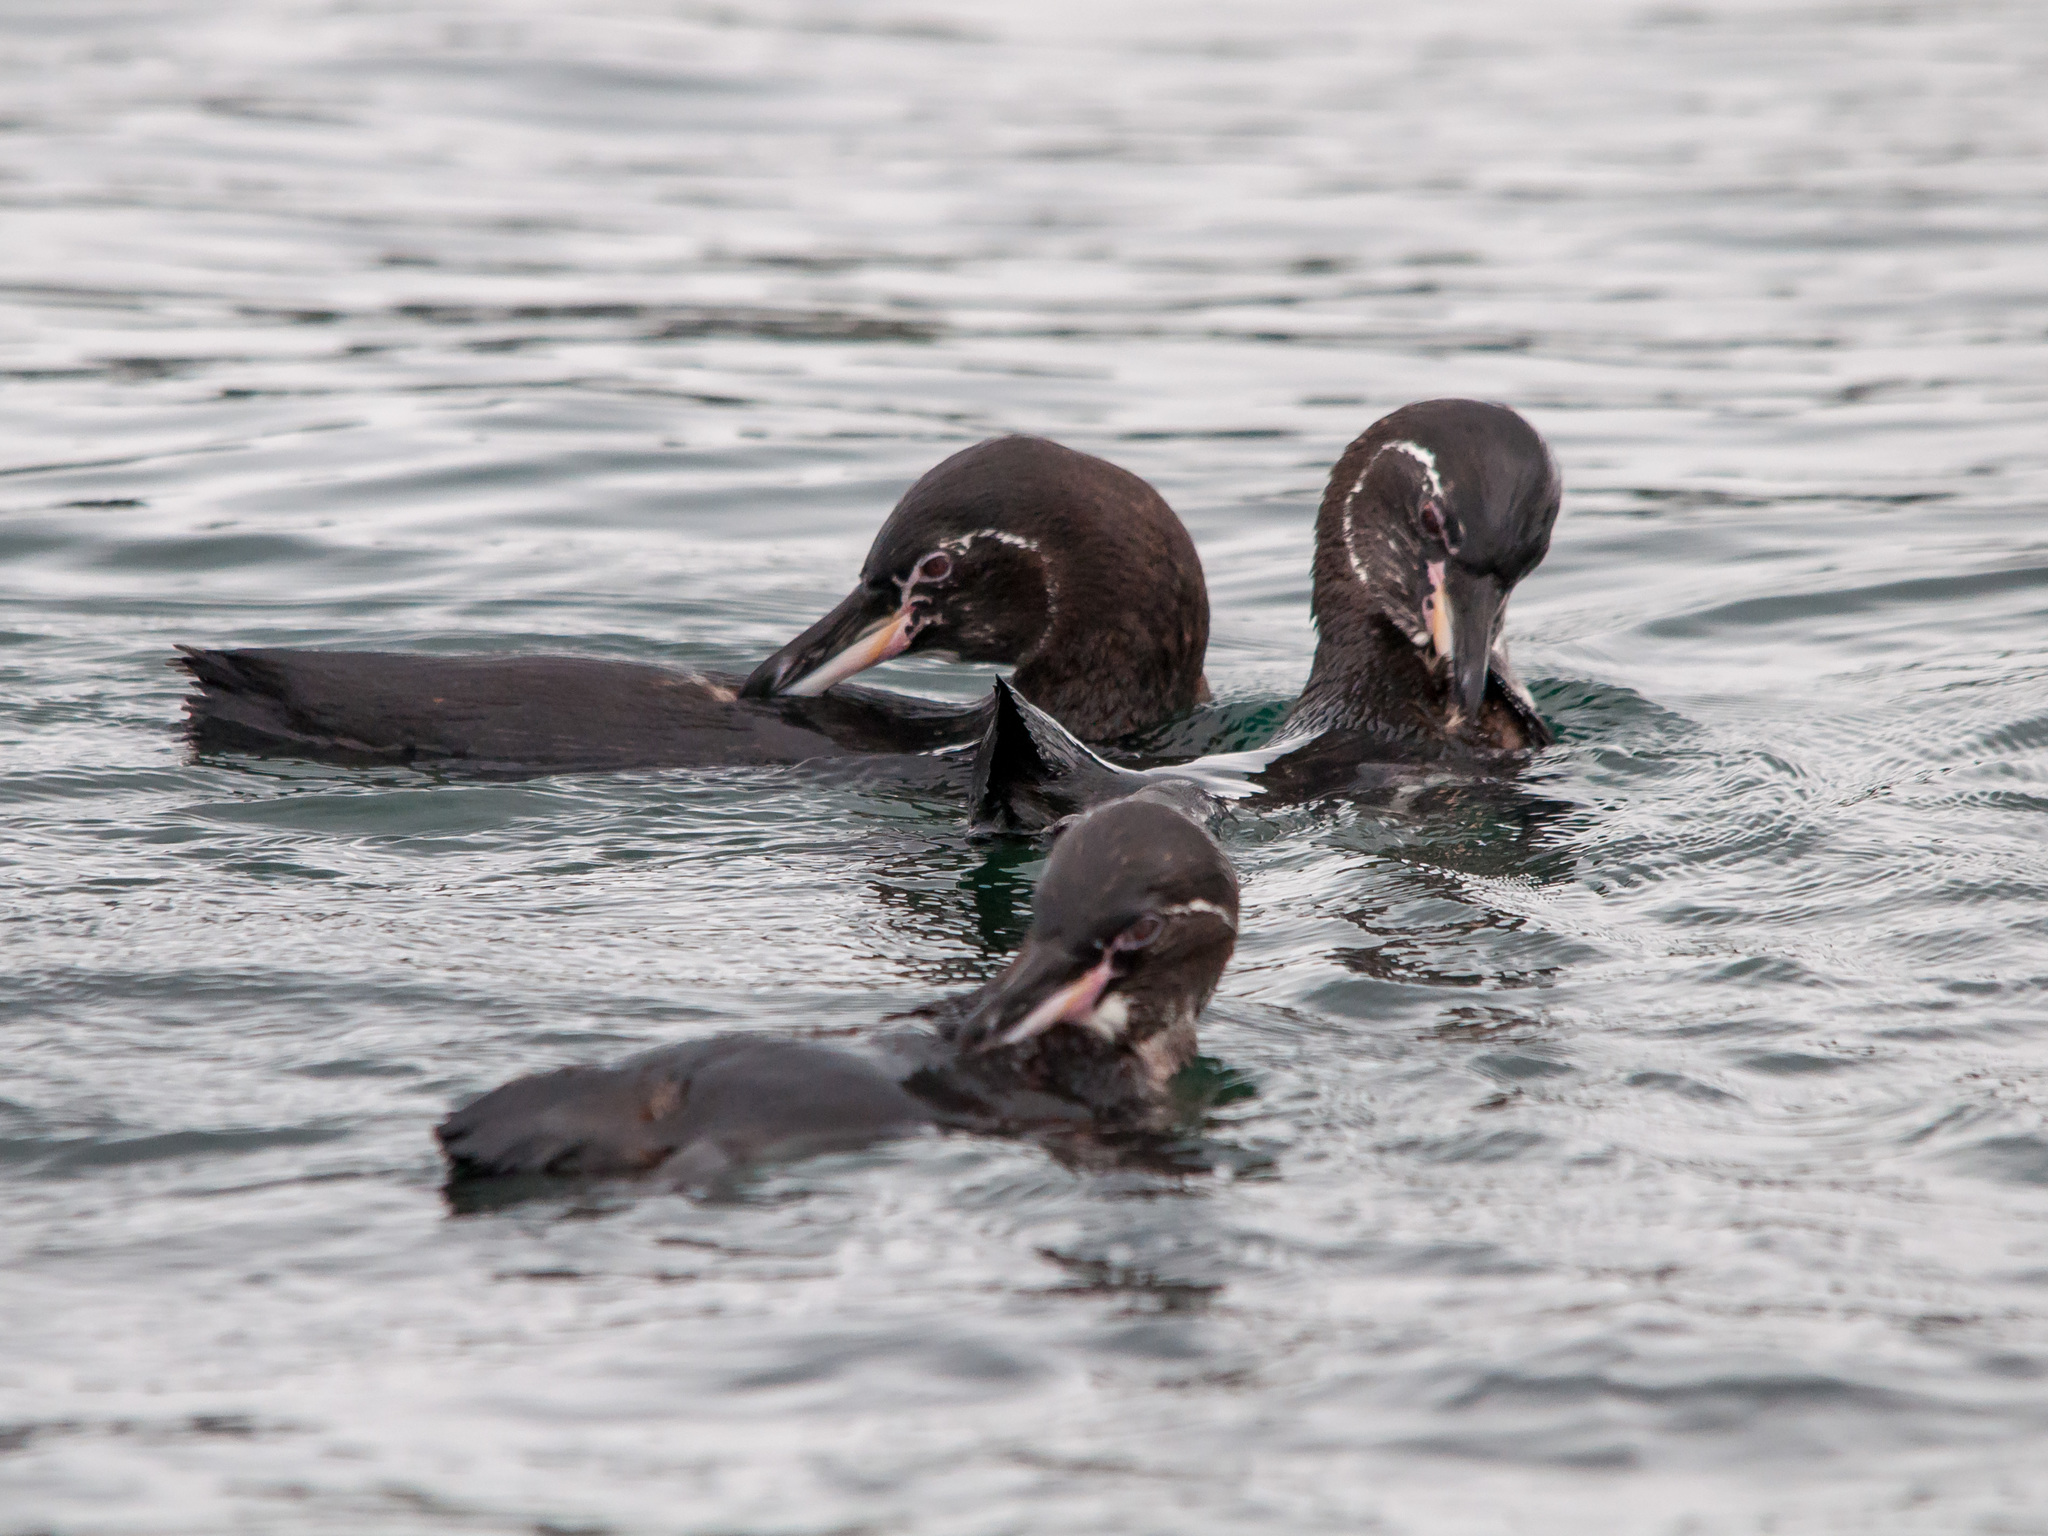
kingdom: Animalia
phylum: Chordata
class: Aves
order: Sphenisciformes
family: Spheniscidae
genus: Spheniscus
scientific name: Spheniscus mendiculus
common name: Galapagos penguin
